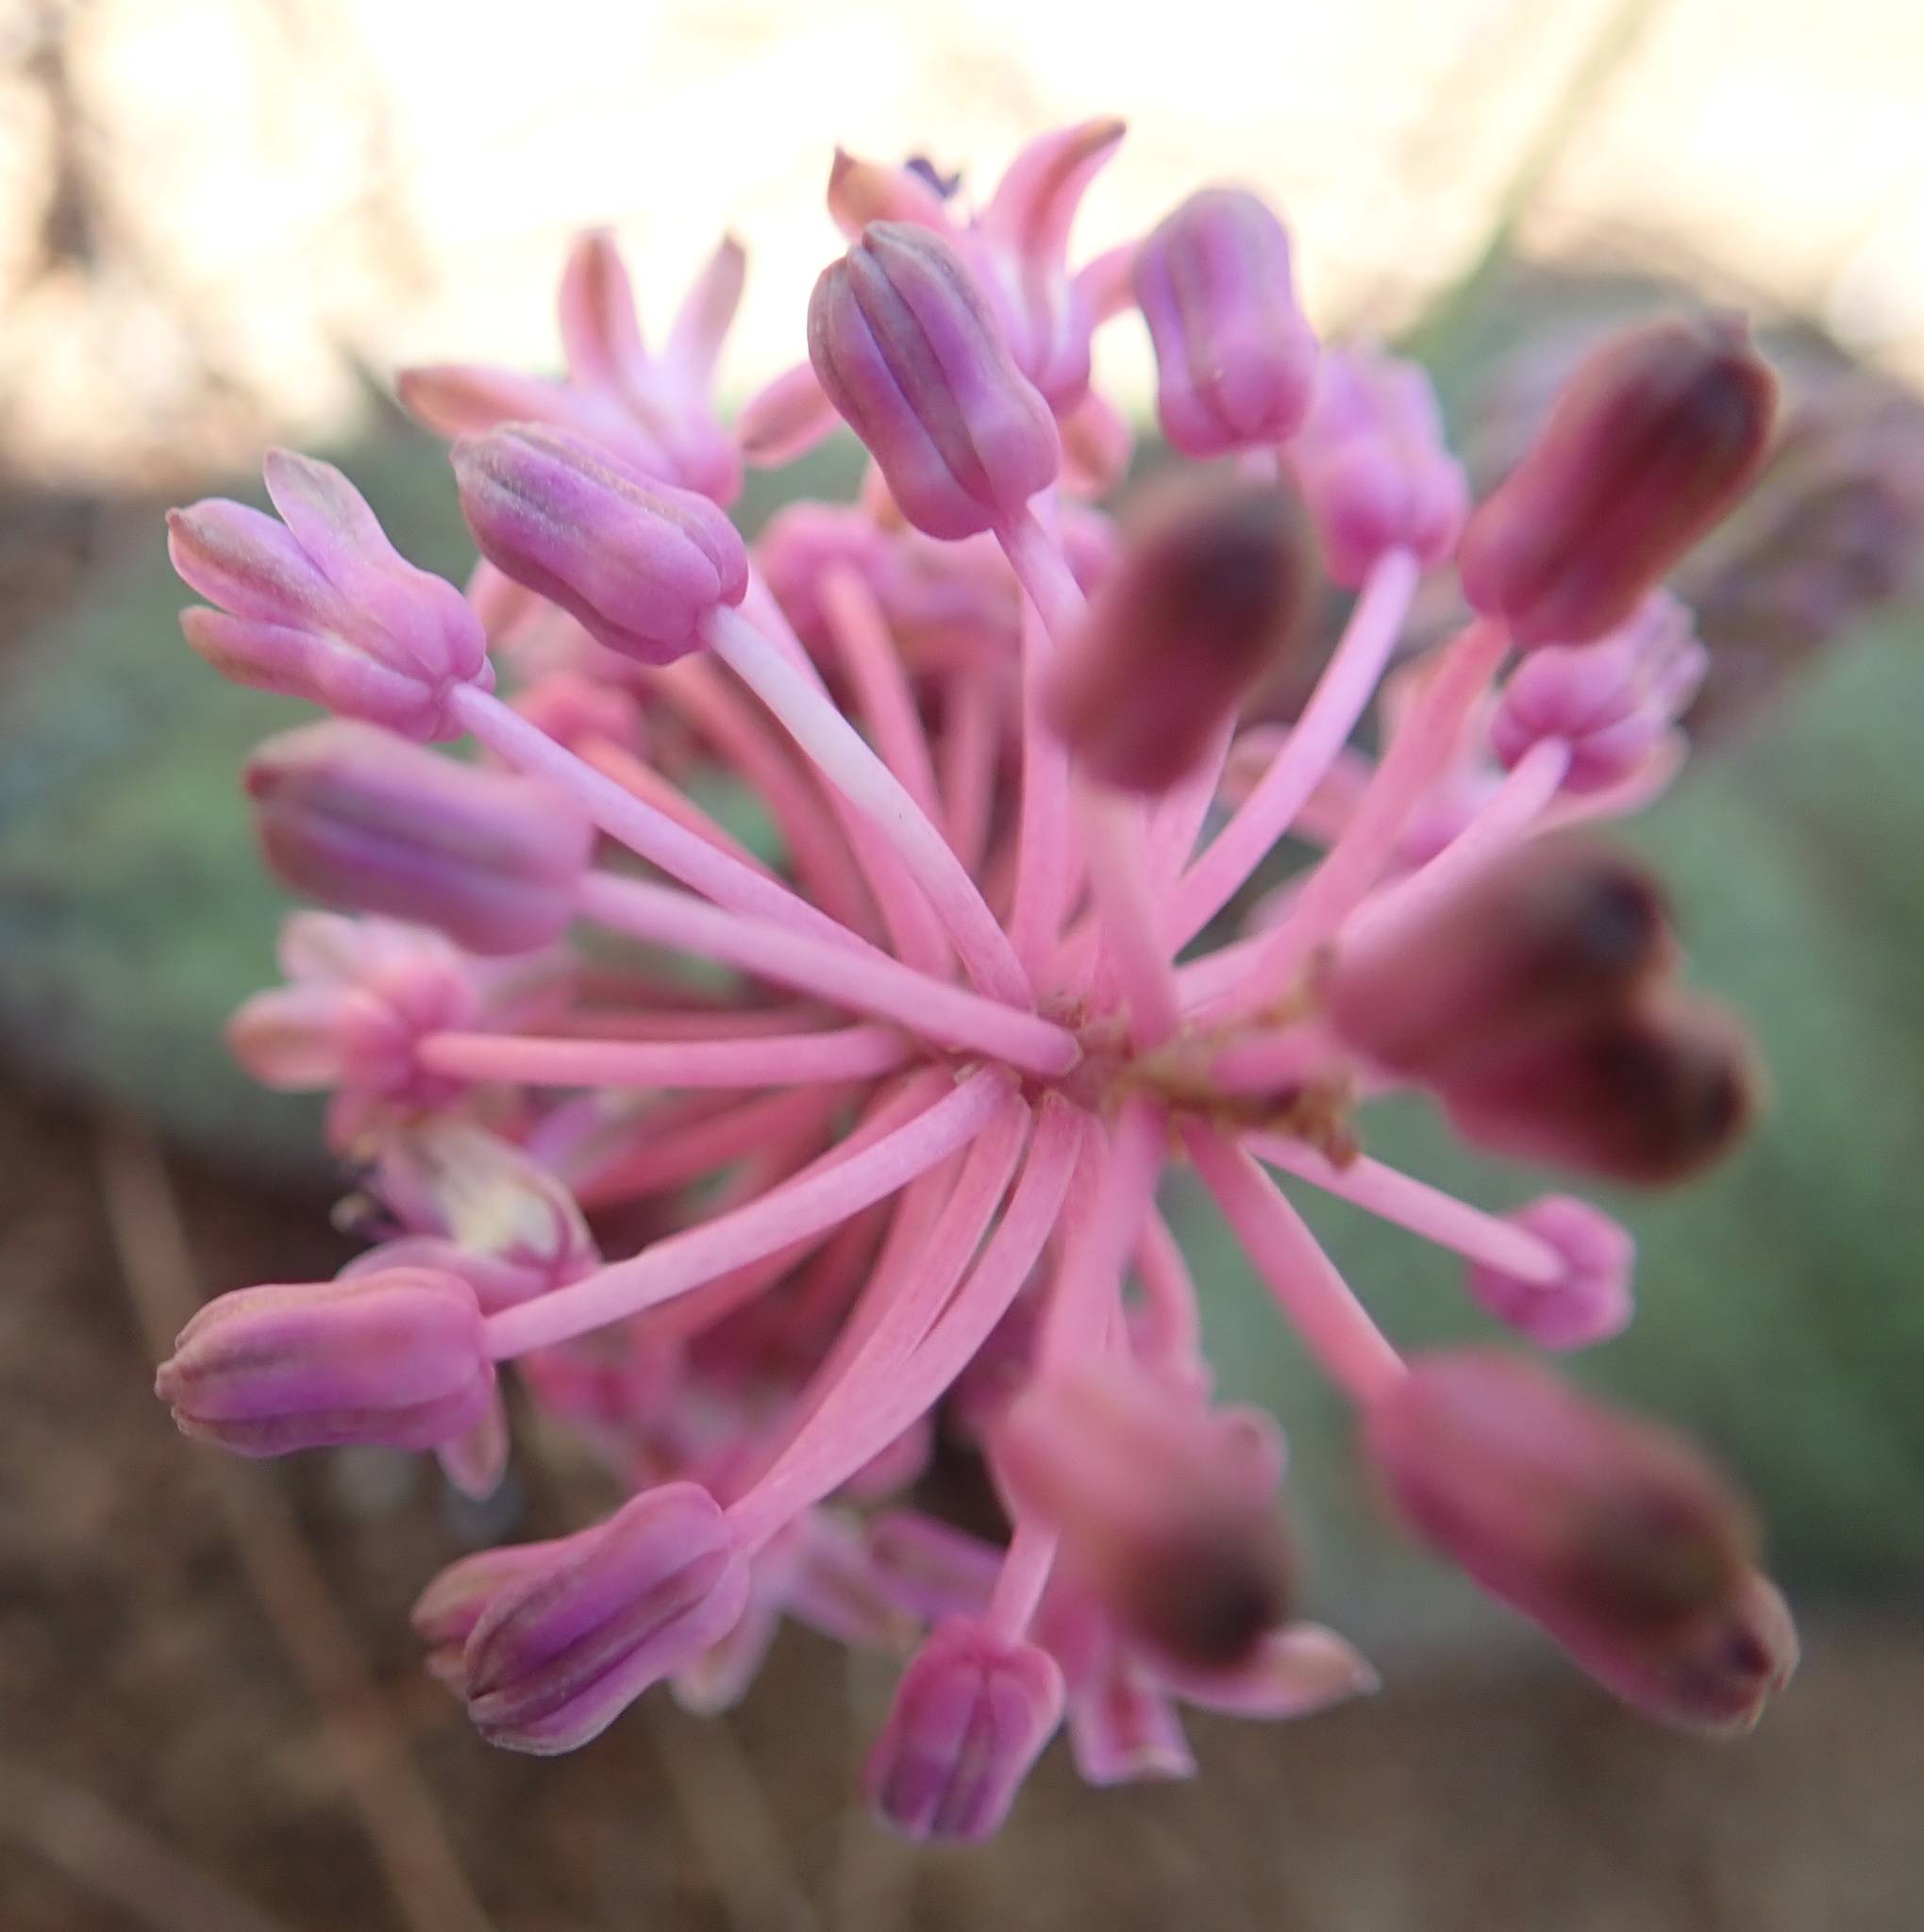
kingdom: Plantae
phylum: Tracheophyta
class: Liliopsida
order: Asparagales
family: Asparagaceae
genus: Ledebouria
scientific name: Ledebouria sandersonii
